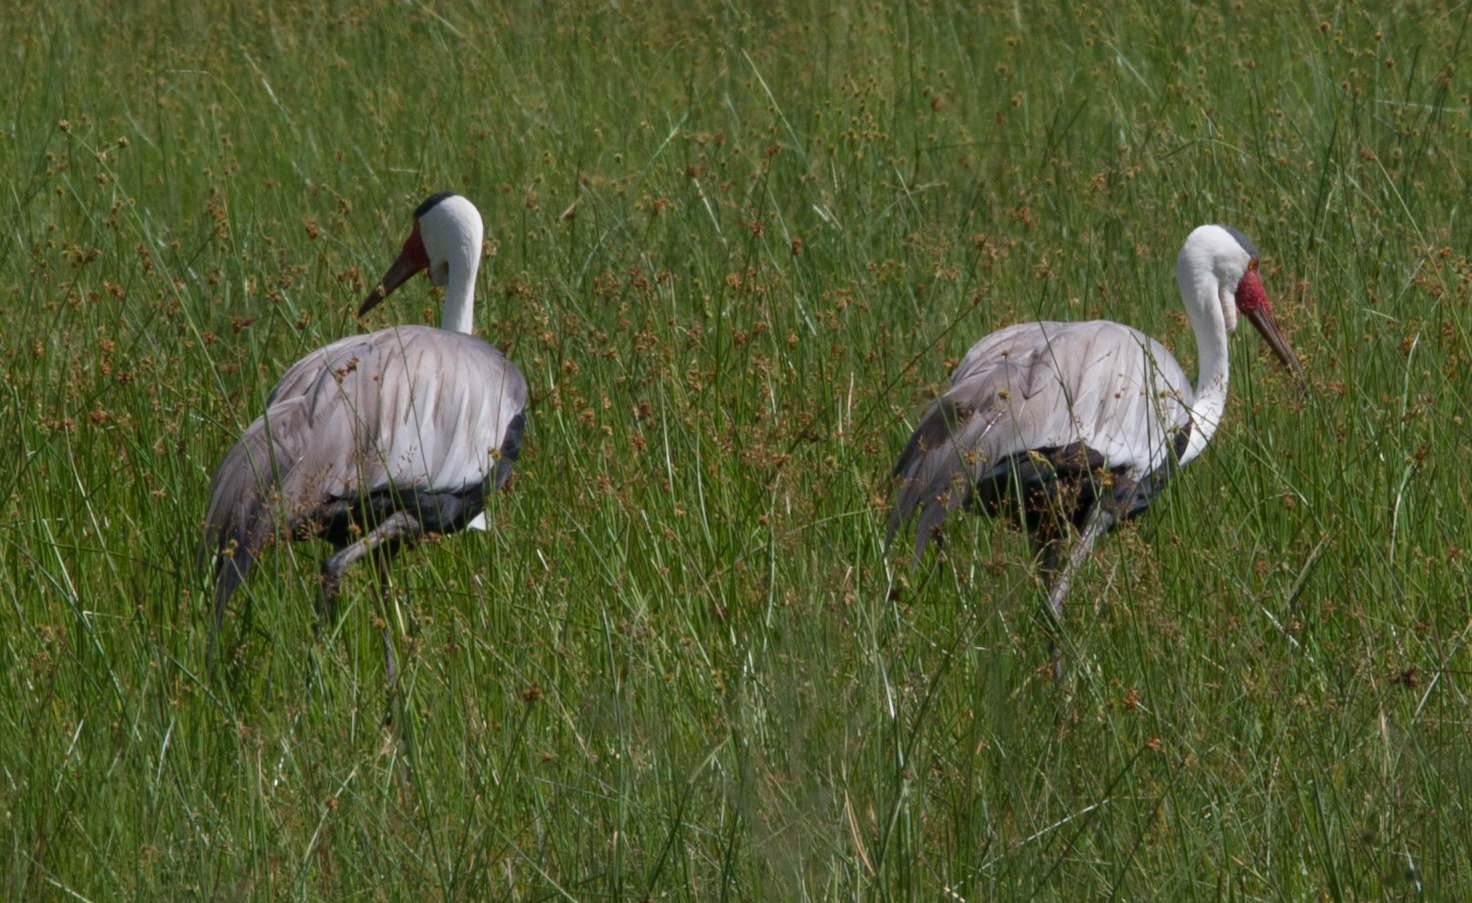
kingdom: Animalia
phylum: Chordata
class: Aves
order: Gruiformes
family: Gruidae
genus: Bugeranus
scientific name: Bugeranus carunculatus
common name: Wattled crane
